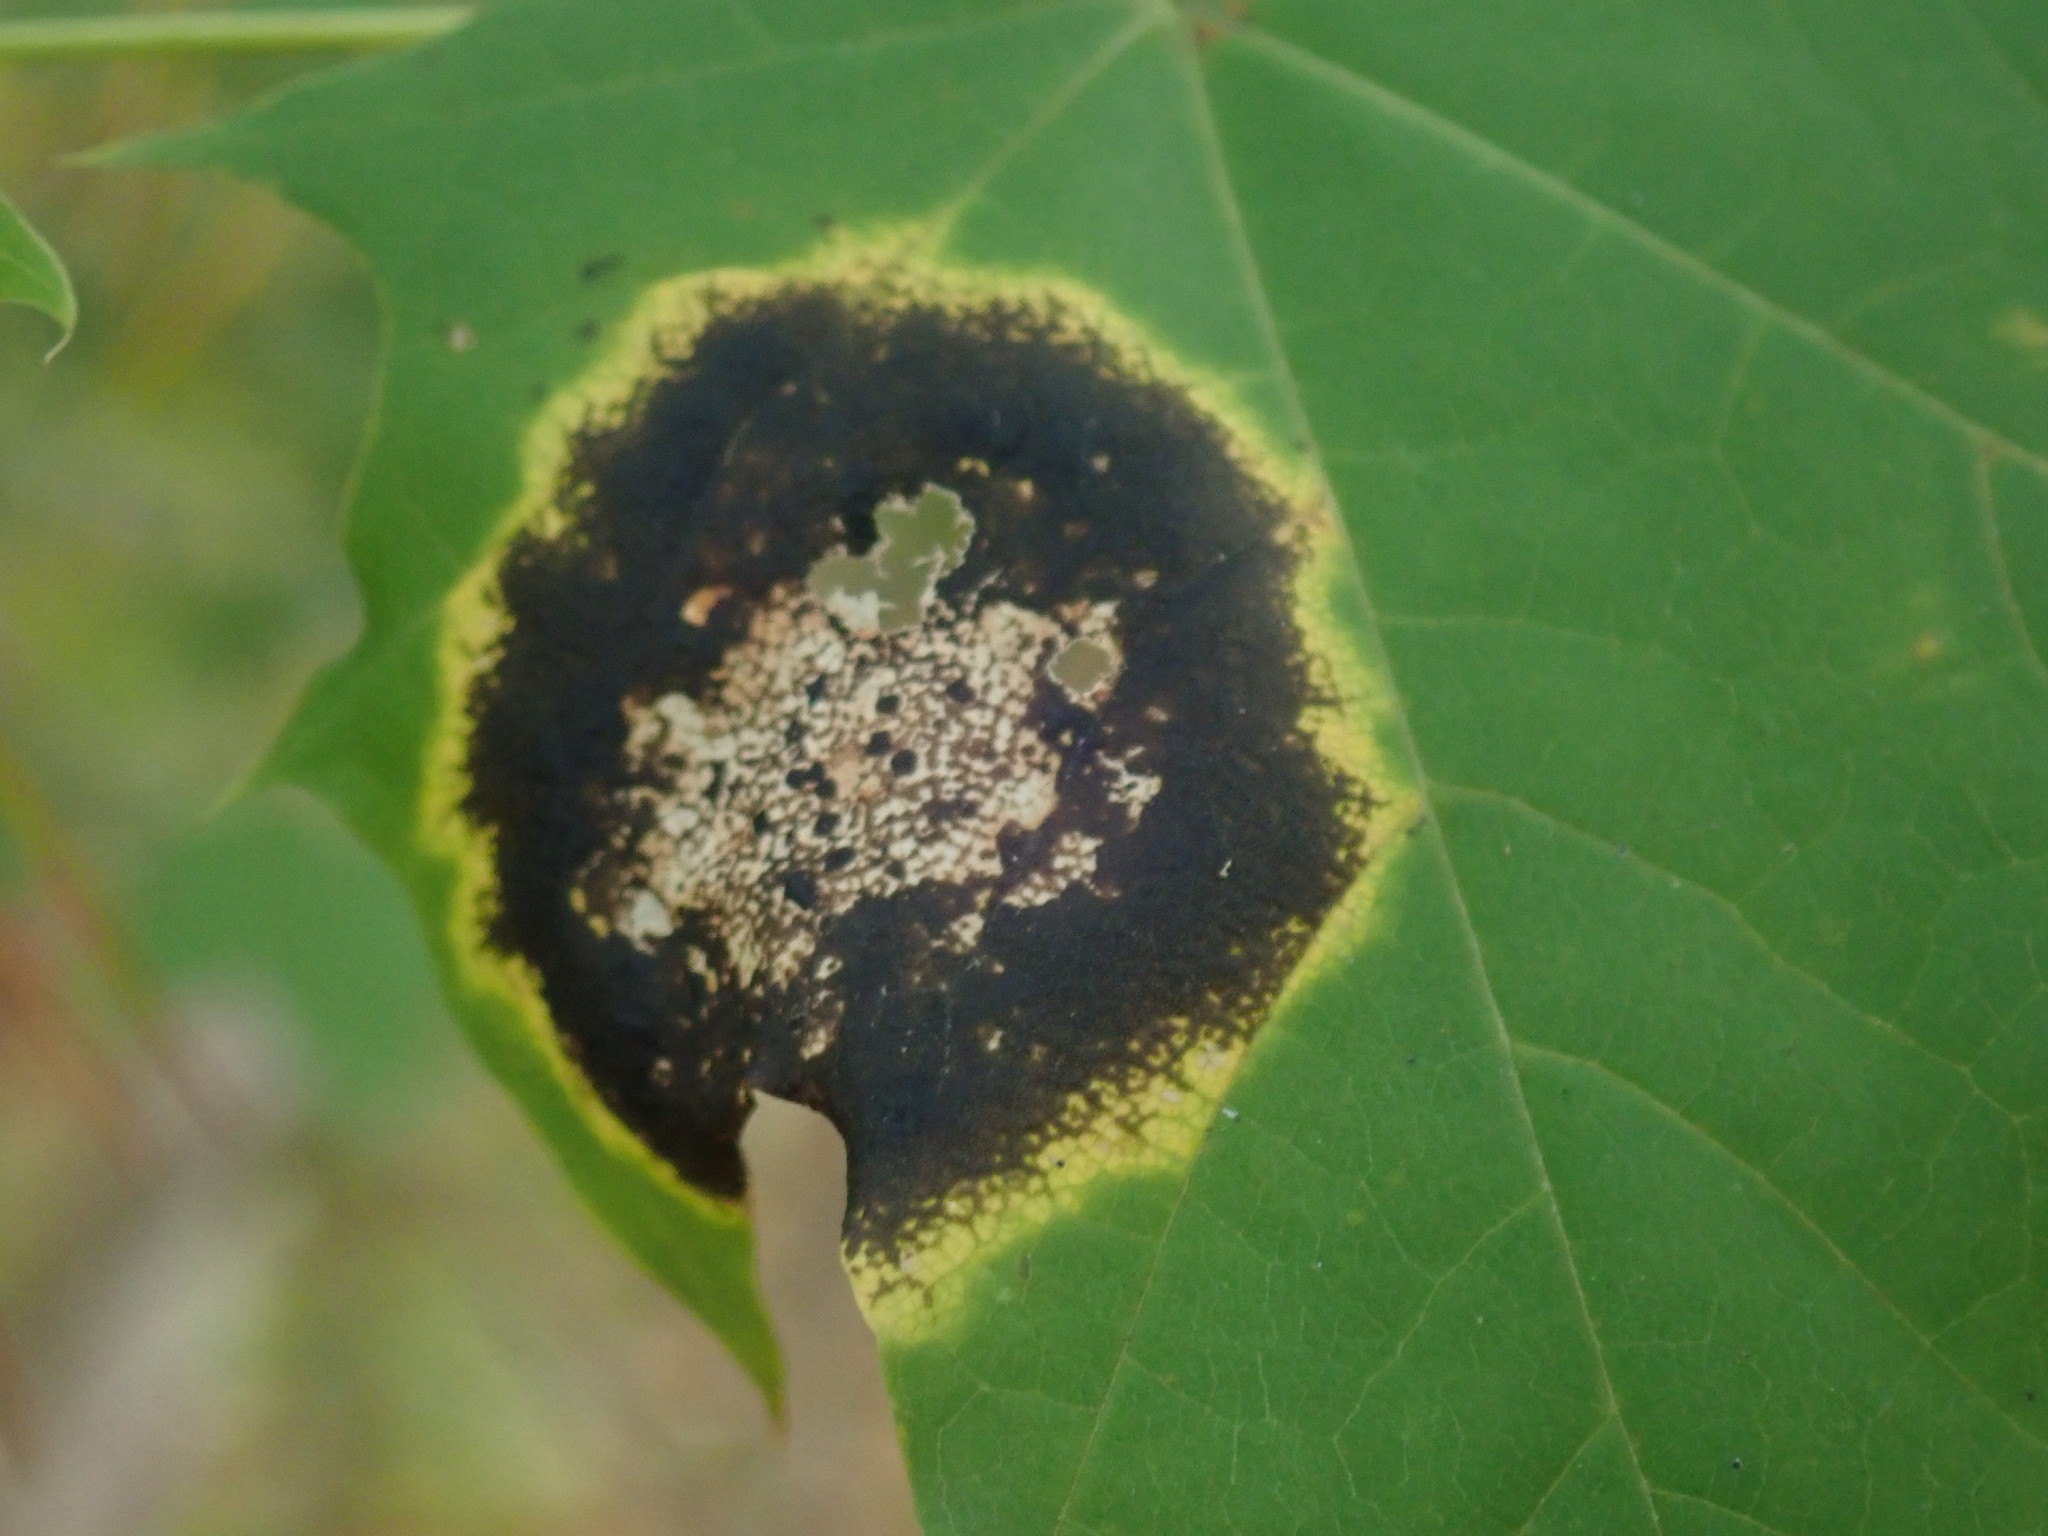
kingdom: Fungi
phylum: Ascomycota
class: Leotiomycetes
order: Rhytismatales
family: Rhytismataceae
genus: Rhytisma
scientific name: Rhytisma acerinum
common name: European tar spot
